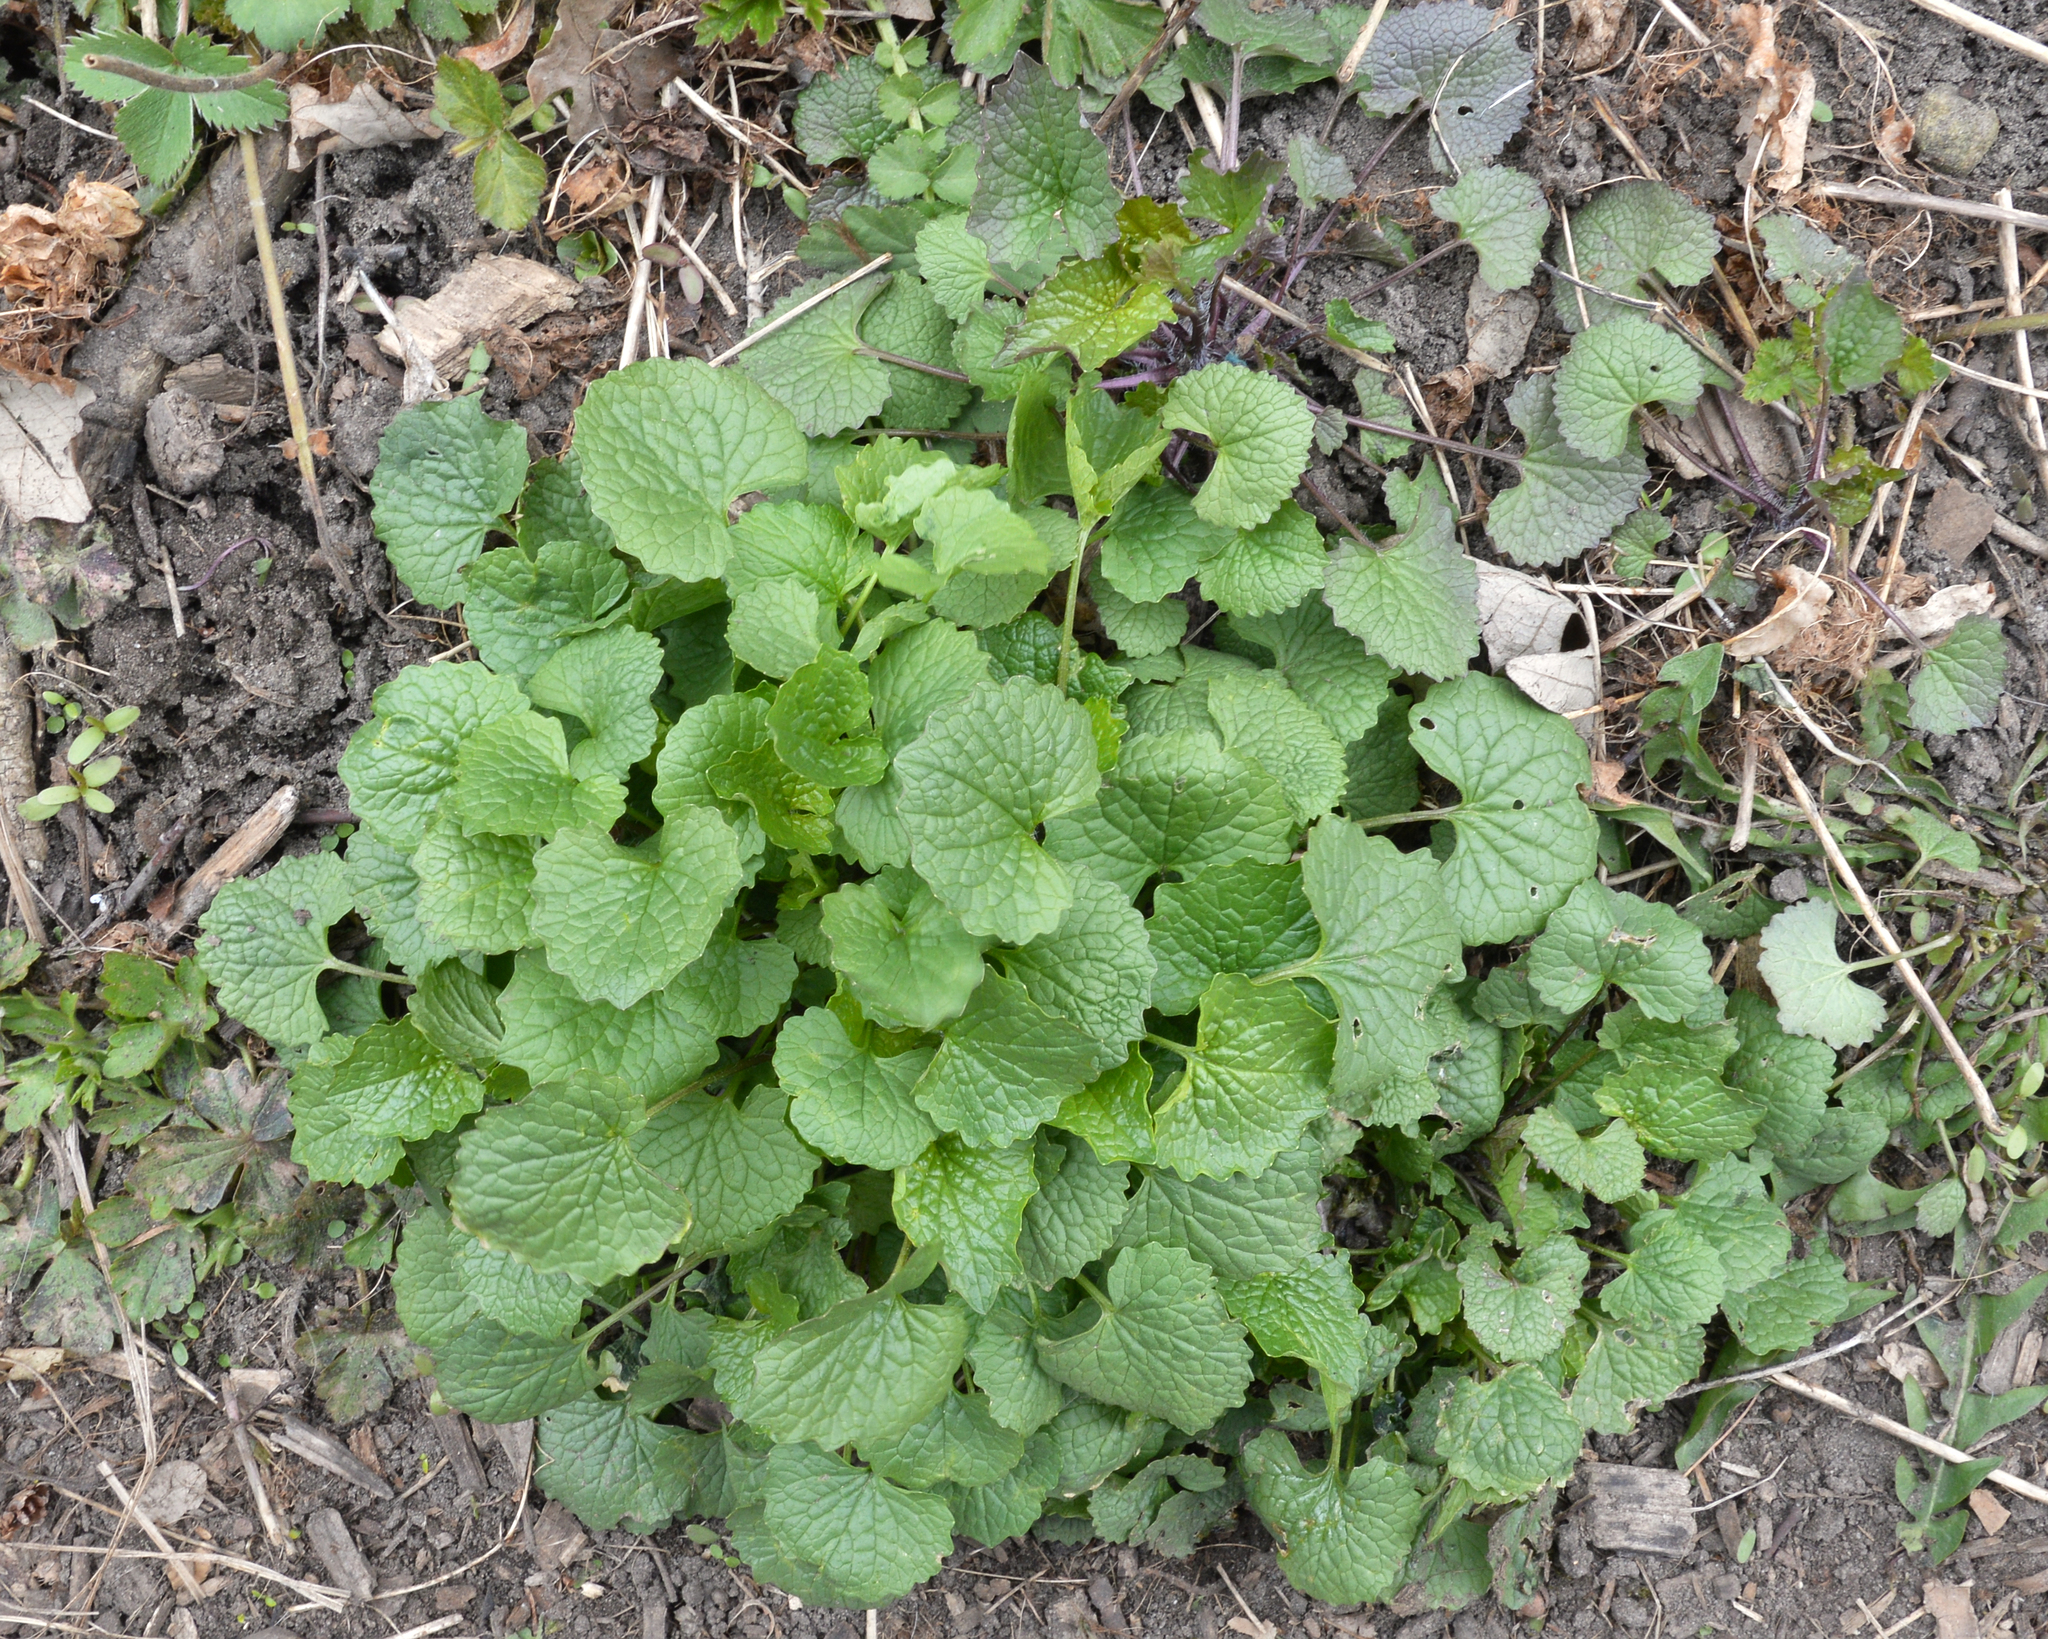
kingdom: Plantae
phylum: Tracheophyta
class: Magnoliopsida
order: Brassicales
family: Brassicaceae
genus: Alliaria
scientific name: Alliaria petiolata
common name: Garlic mustard
